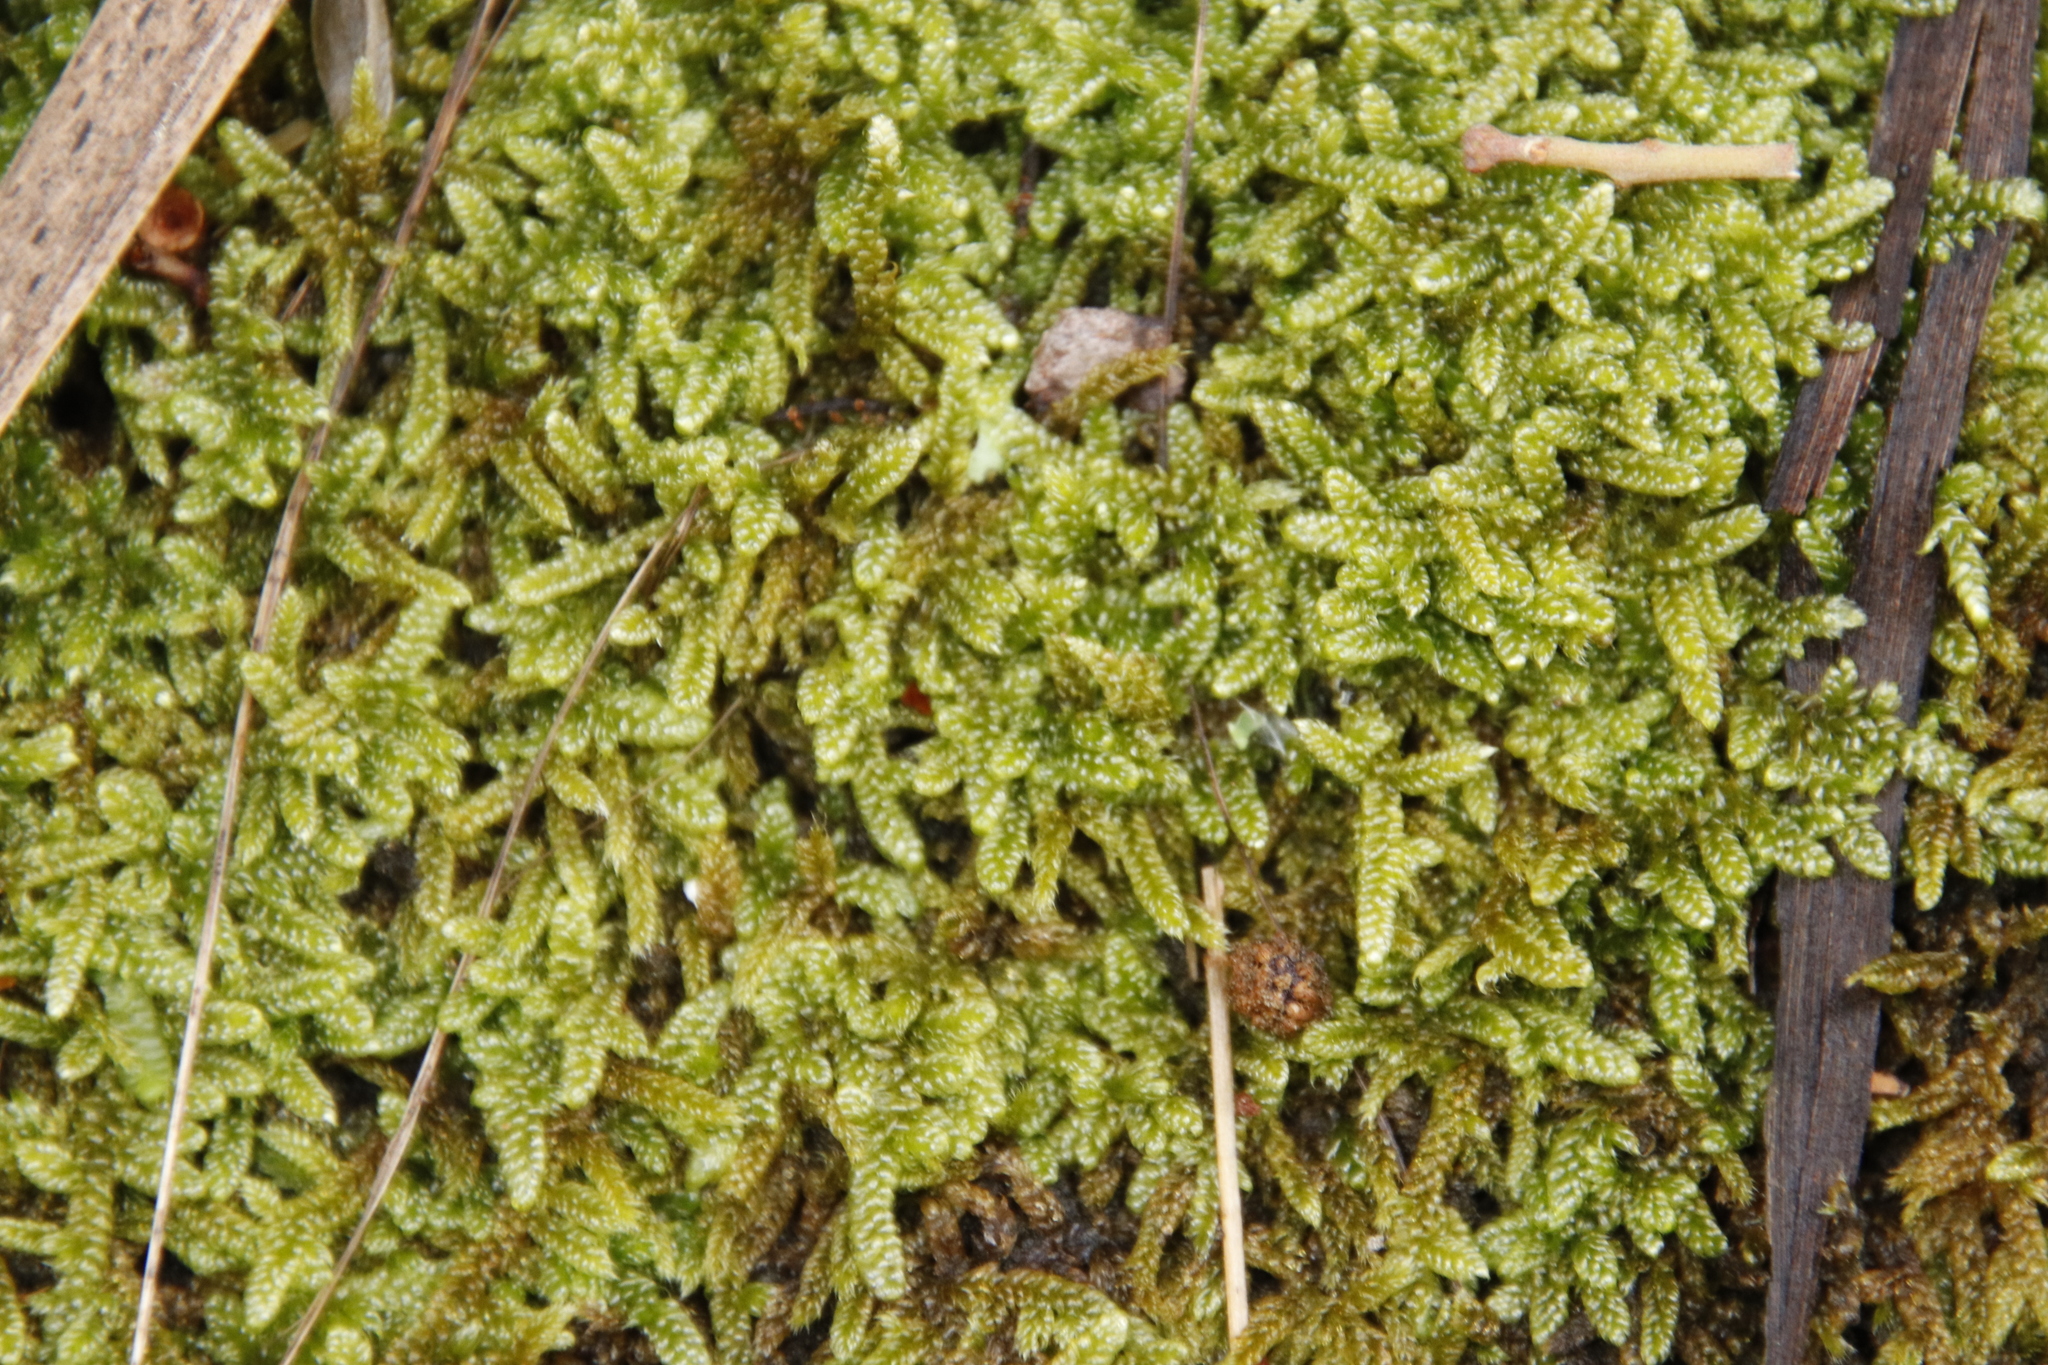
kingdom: Plantae
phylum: Bryophyta
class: Bryopsida
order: Hypnales
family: Hypnaceae
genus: Hypnum
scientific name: Hypnum cupressiforme
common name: Cypress-leaved plait-moss
